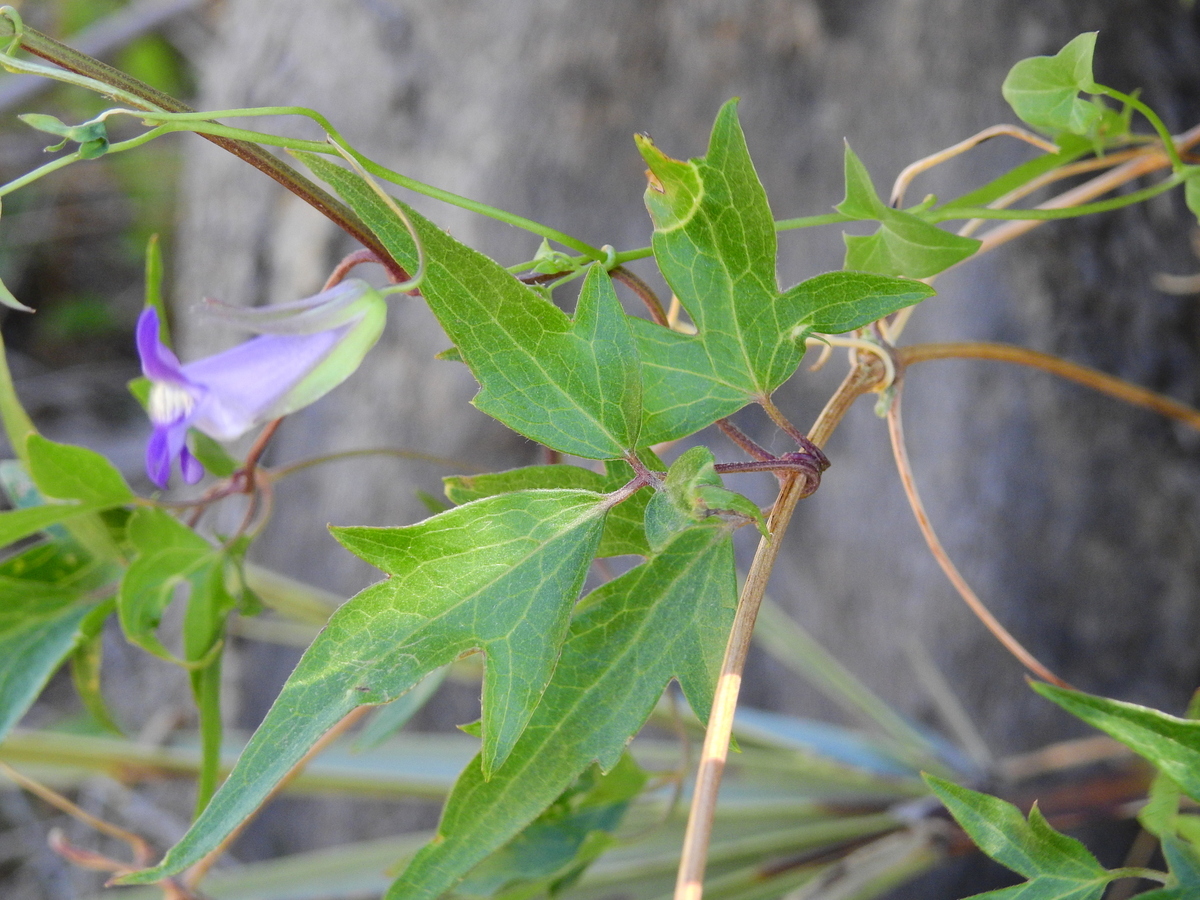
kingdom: Plantae
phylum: Tracheophyta
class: Magnoliopsida
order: Lamiales
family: Plantaginaceae
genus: Maurandella
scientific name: Maurandella antirrhiniflora
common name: Violet twining-snapdragon
